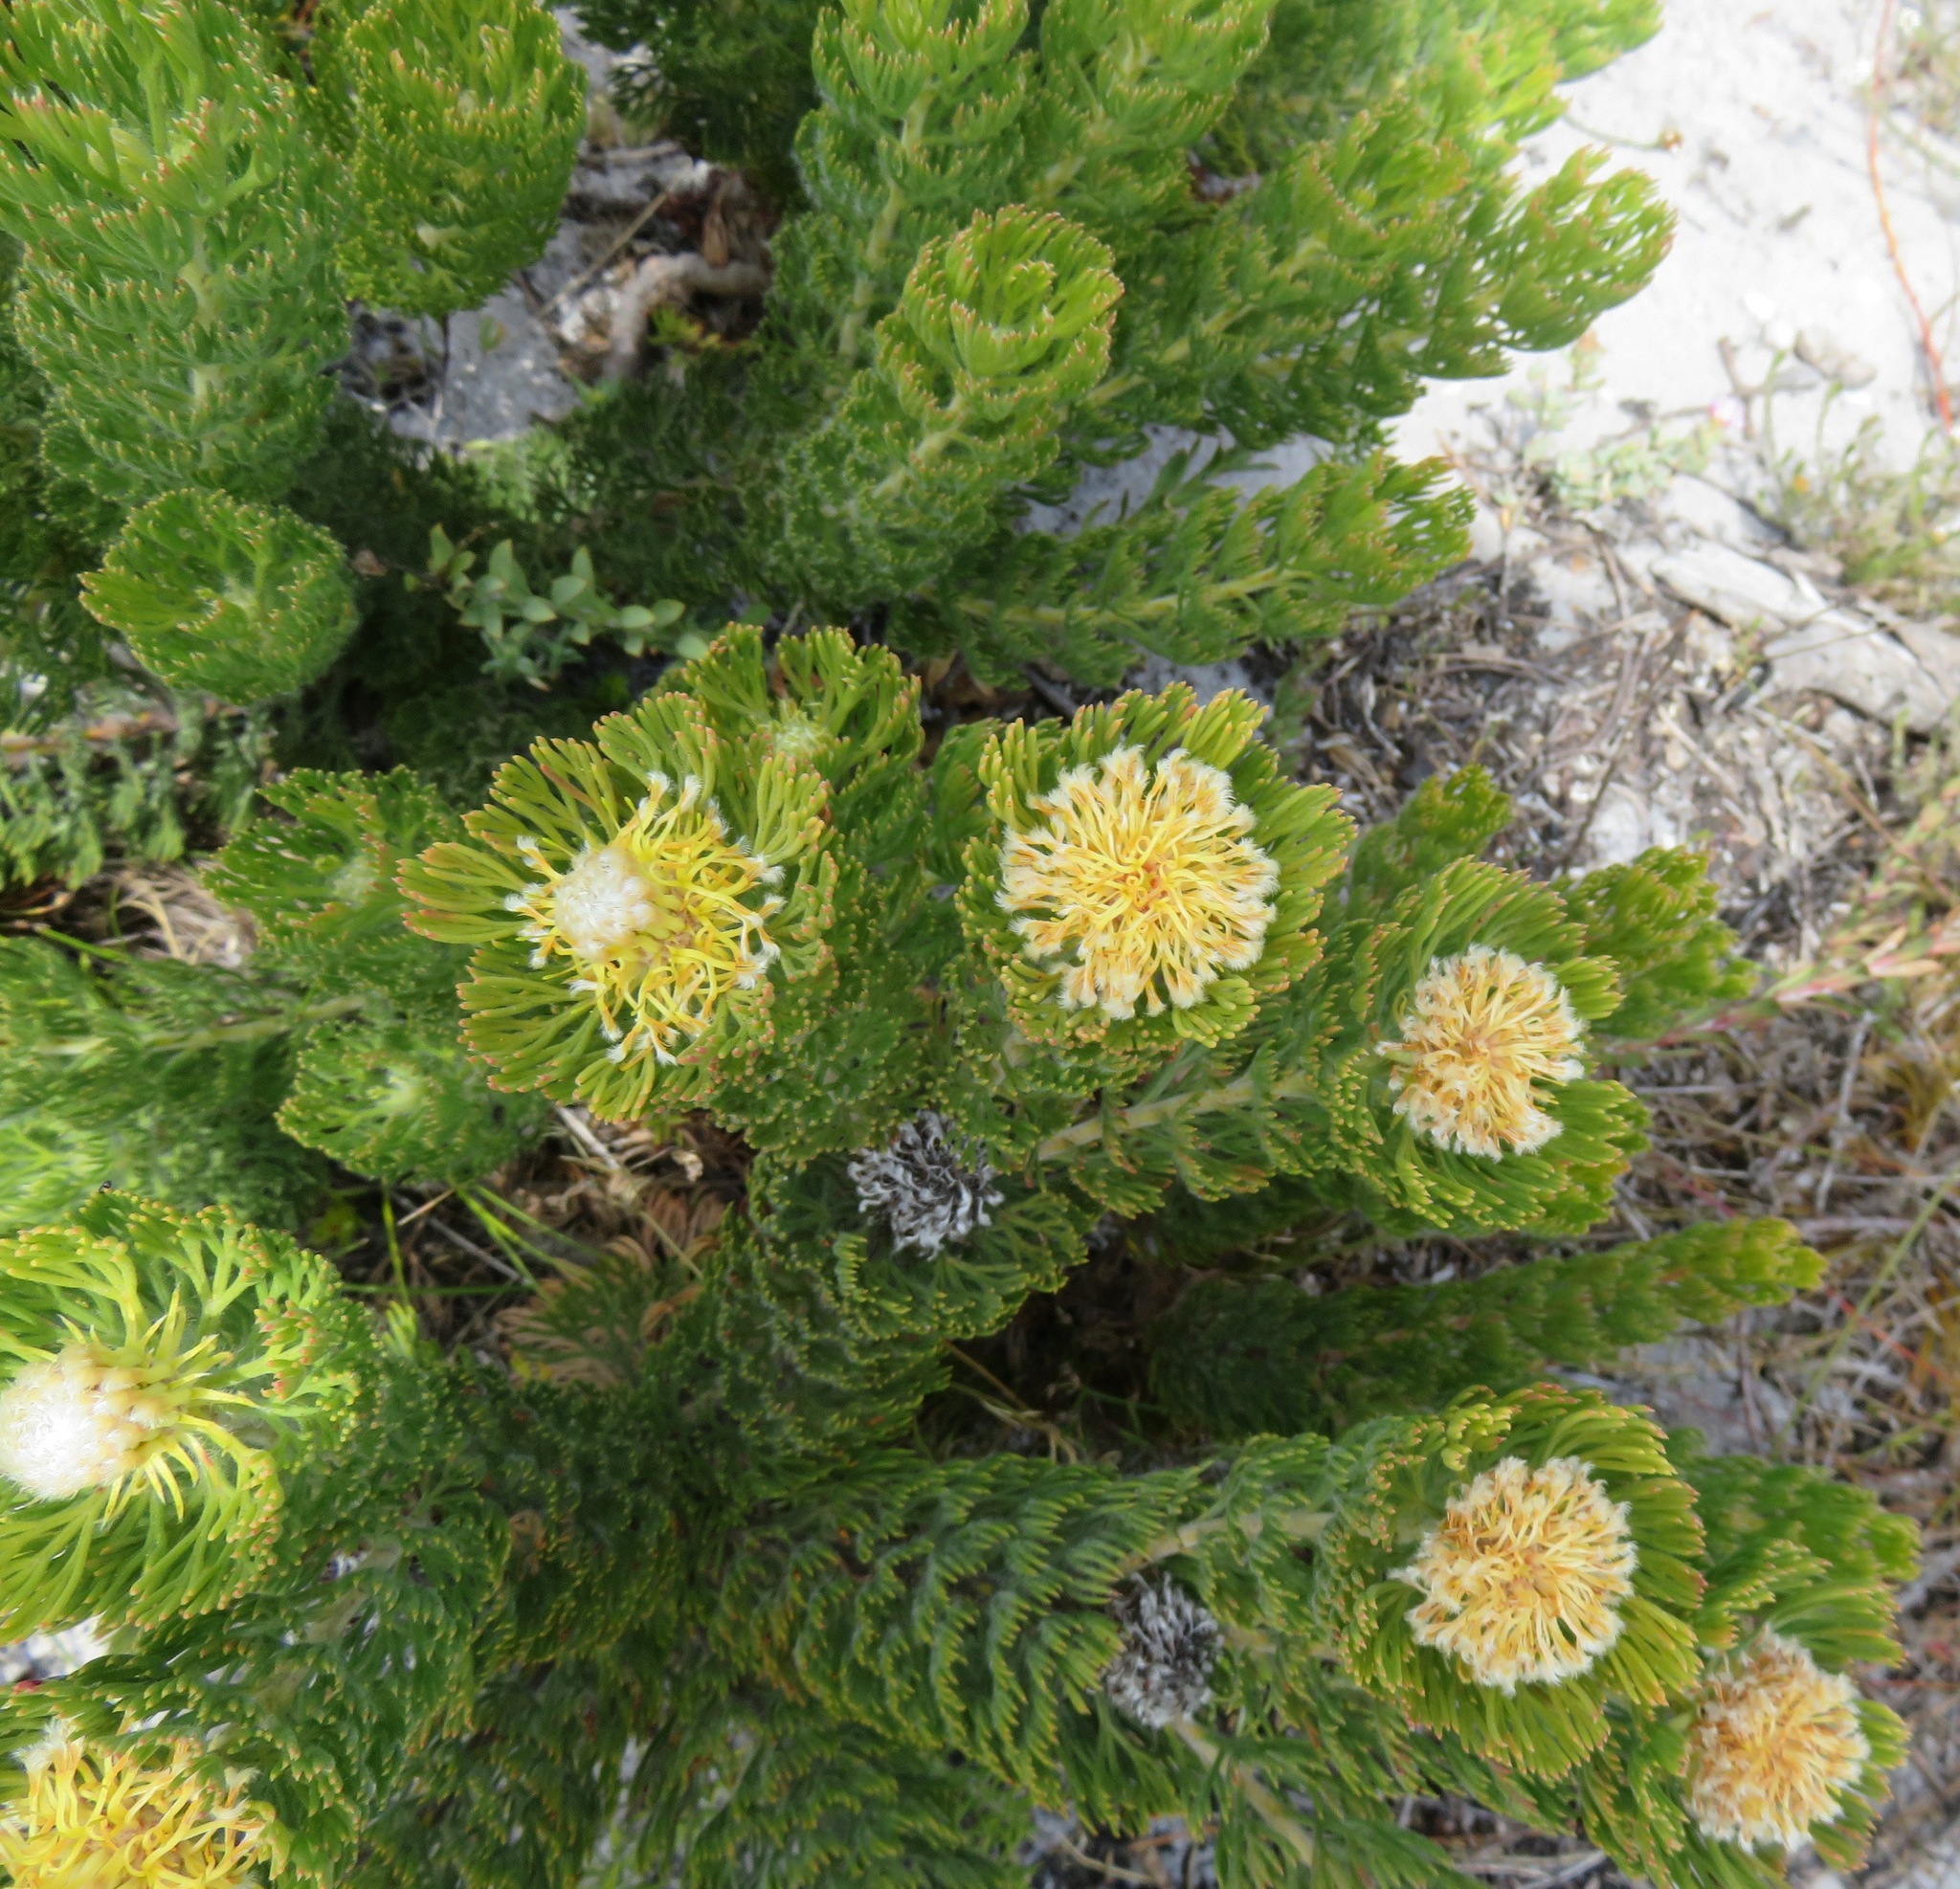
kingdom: Plantae
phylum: Tracheophyta
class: Magnoliopsida
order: Proteales
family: Proteaceae
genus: Serruria
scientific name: Serruria villosa
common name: Golden spiderhead
